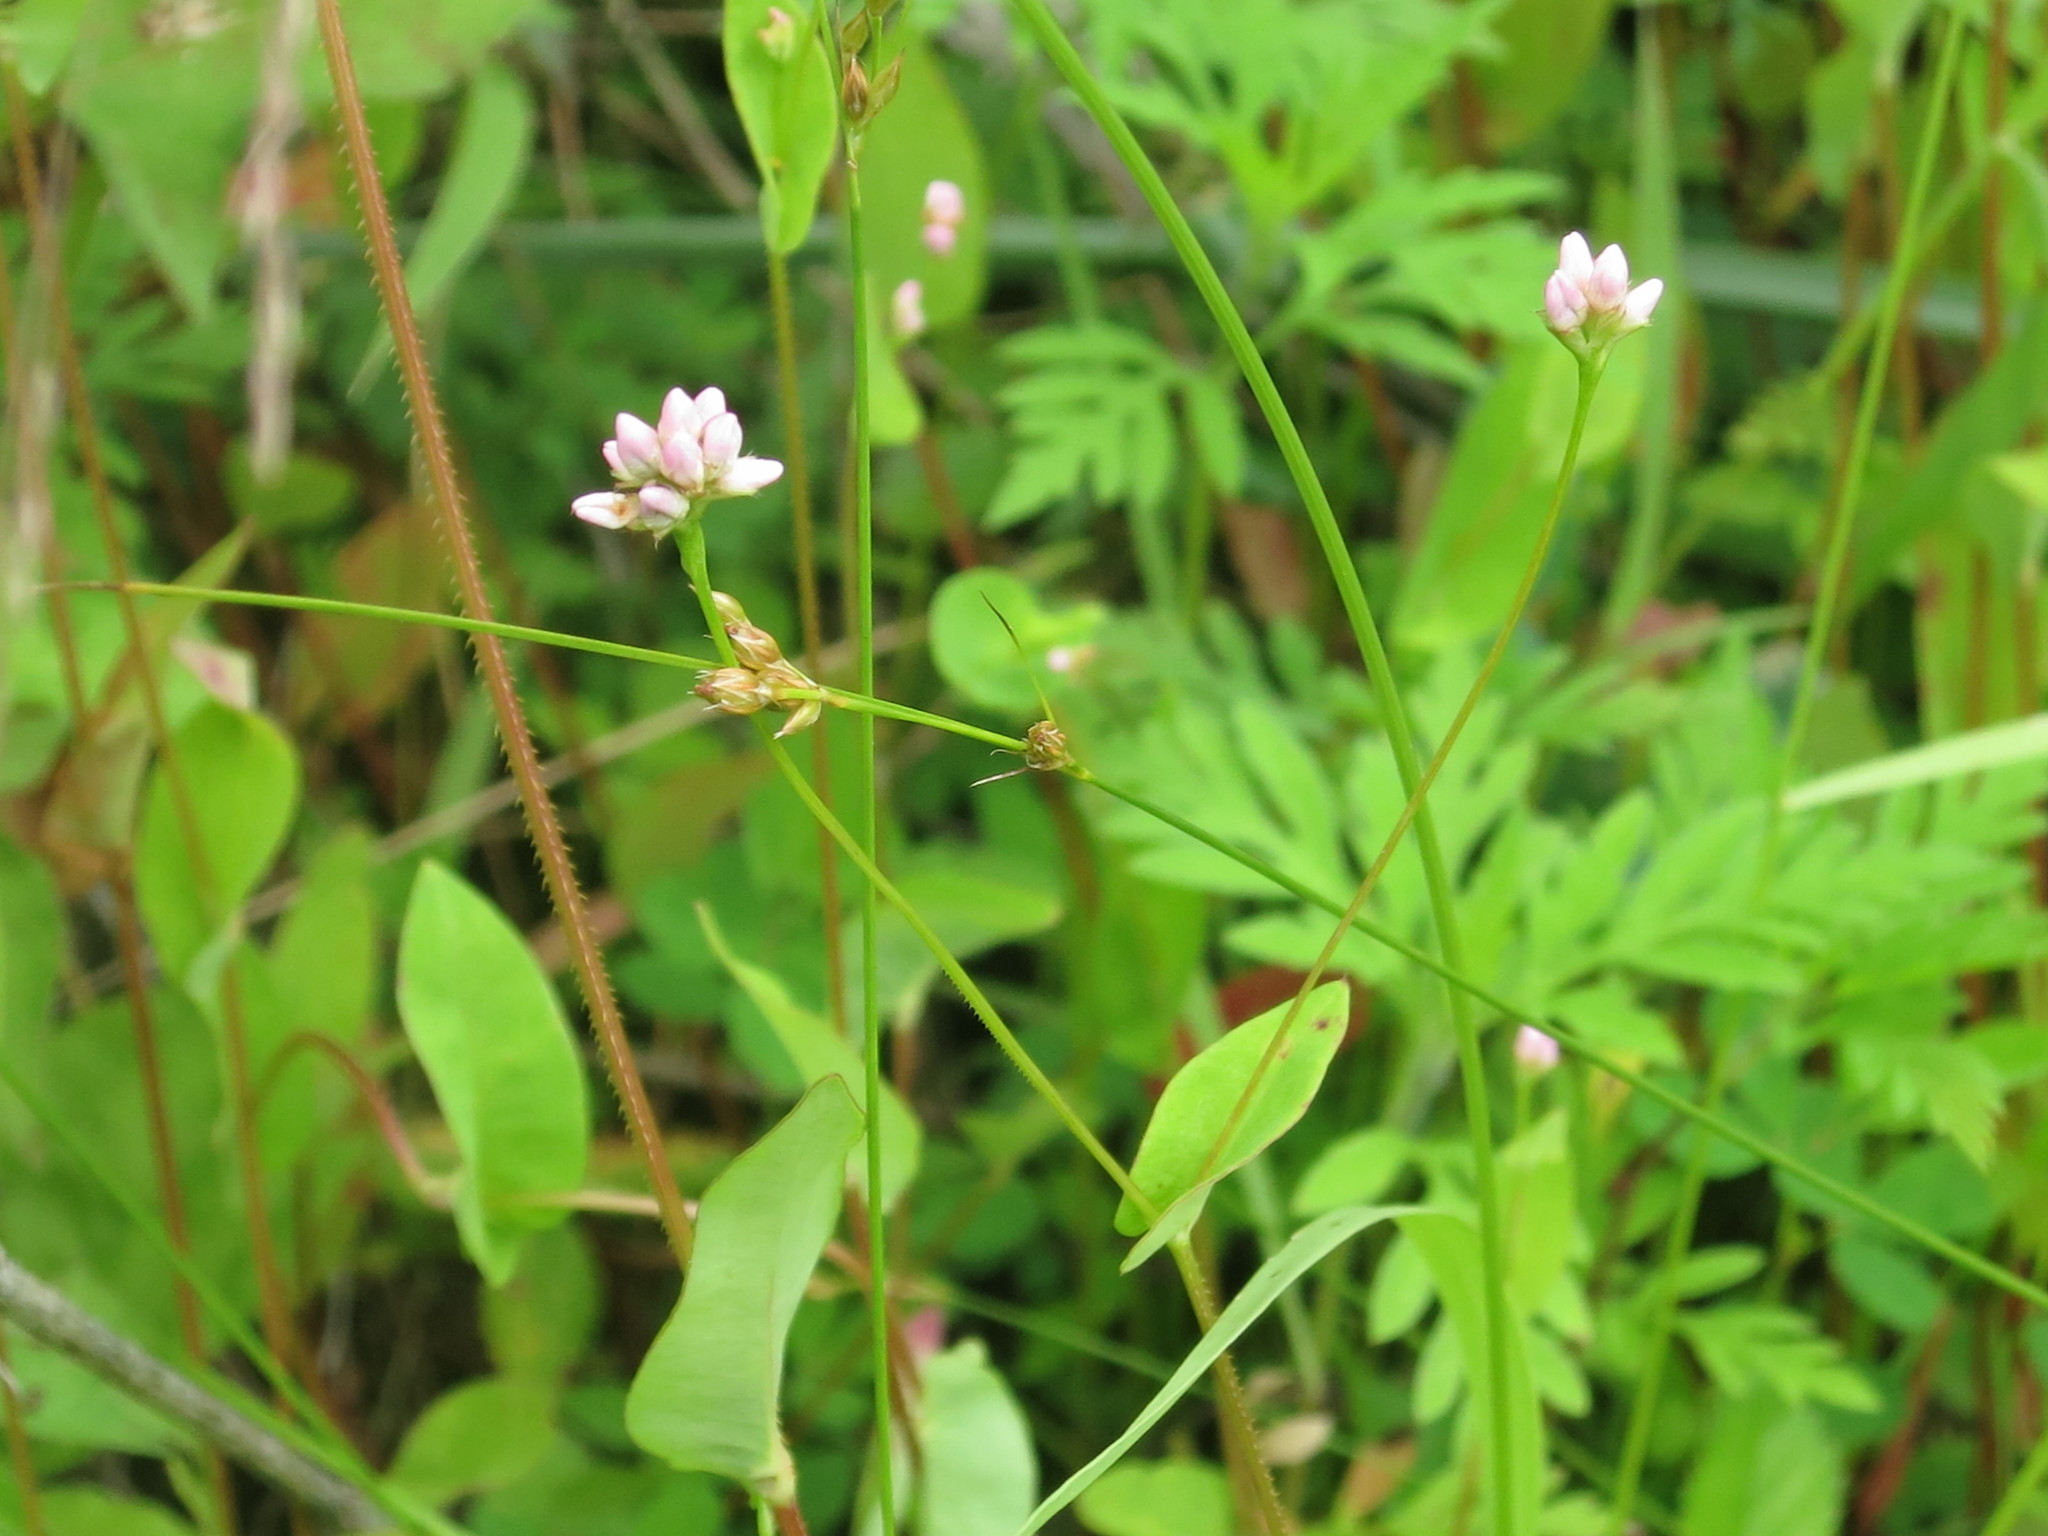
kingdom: Plantae
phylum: Tracheophyta
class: Magnoliopsida
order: Caryophyllales
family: Polygonaceae
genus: Persicaria
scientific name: Persicaria sagittata
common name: American tearthumb
